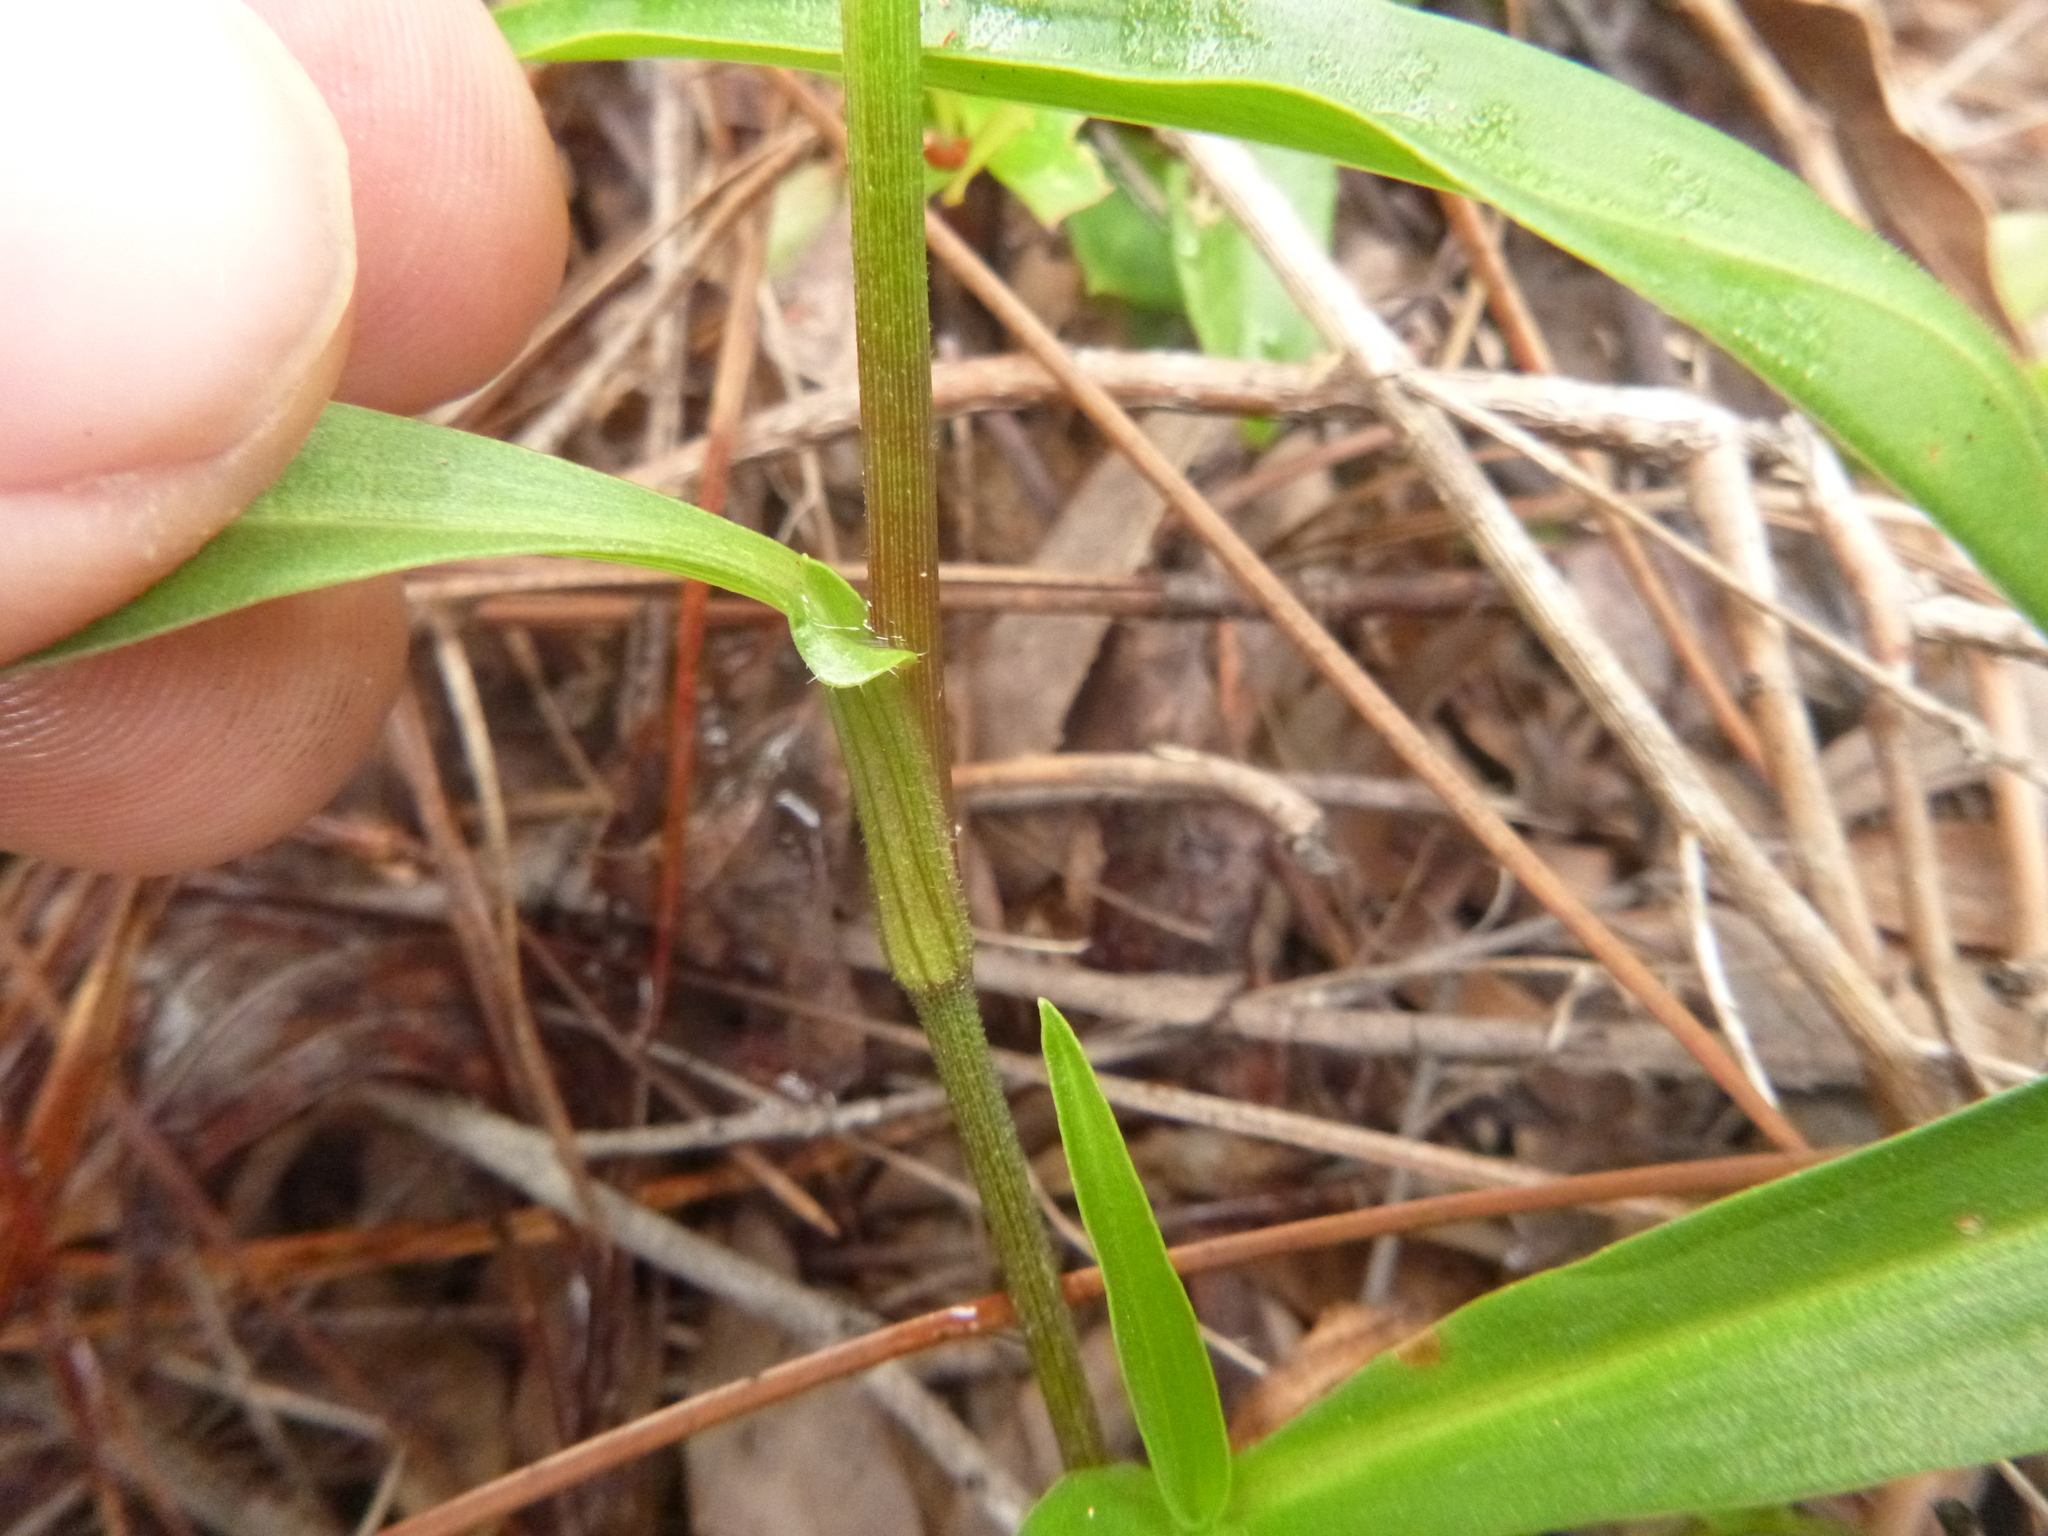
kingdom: Plantae
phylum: Tracheophyta
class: Liliopsida
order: Commelinales
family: Commelinaceae
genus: Commelina
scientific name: Commelina erecta
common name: Blousel blommetjie
